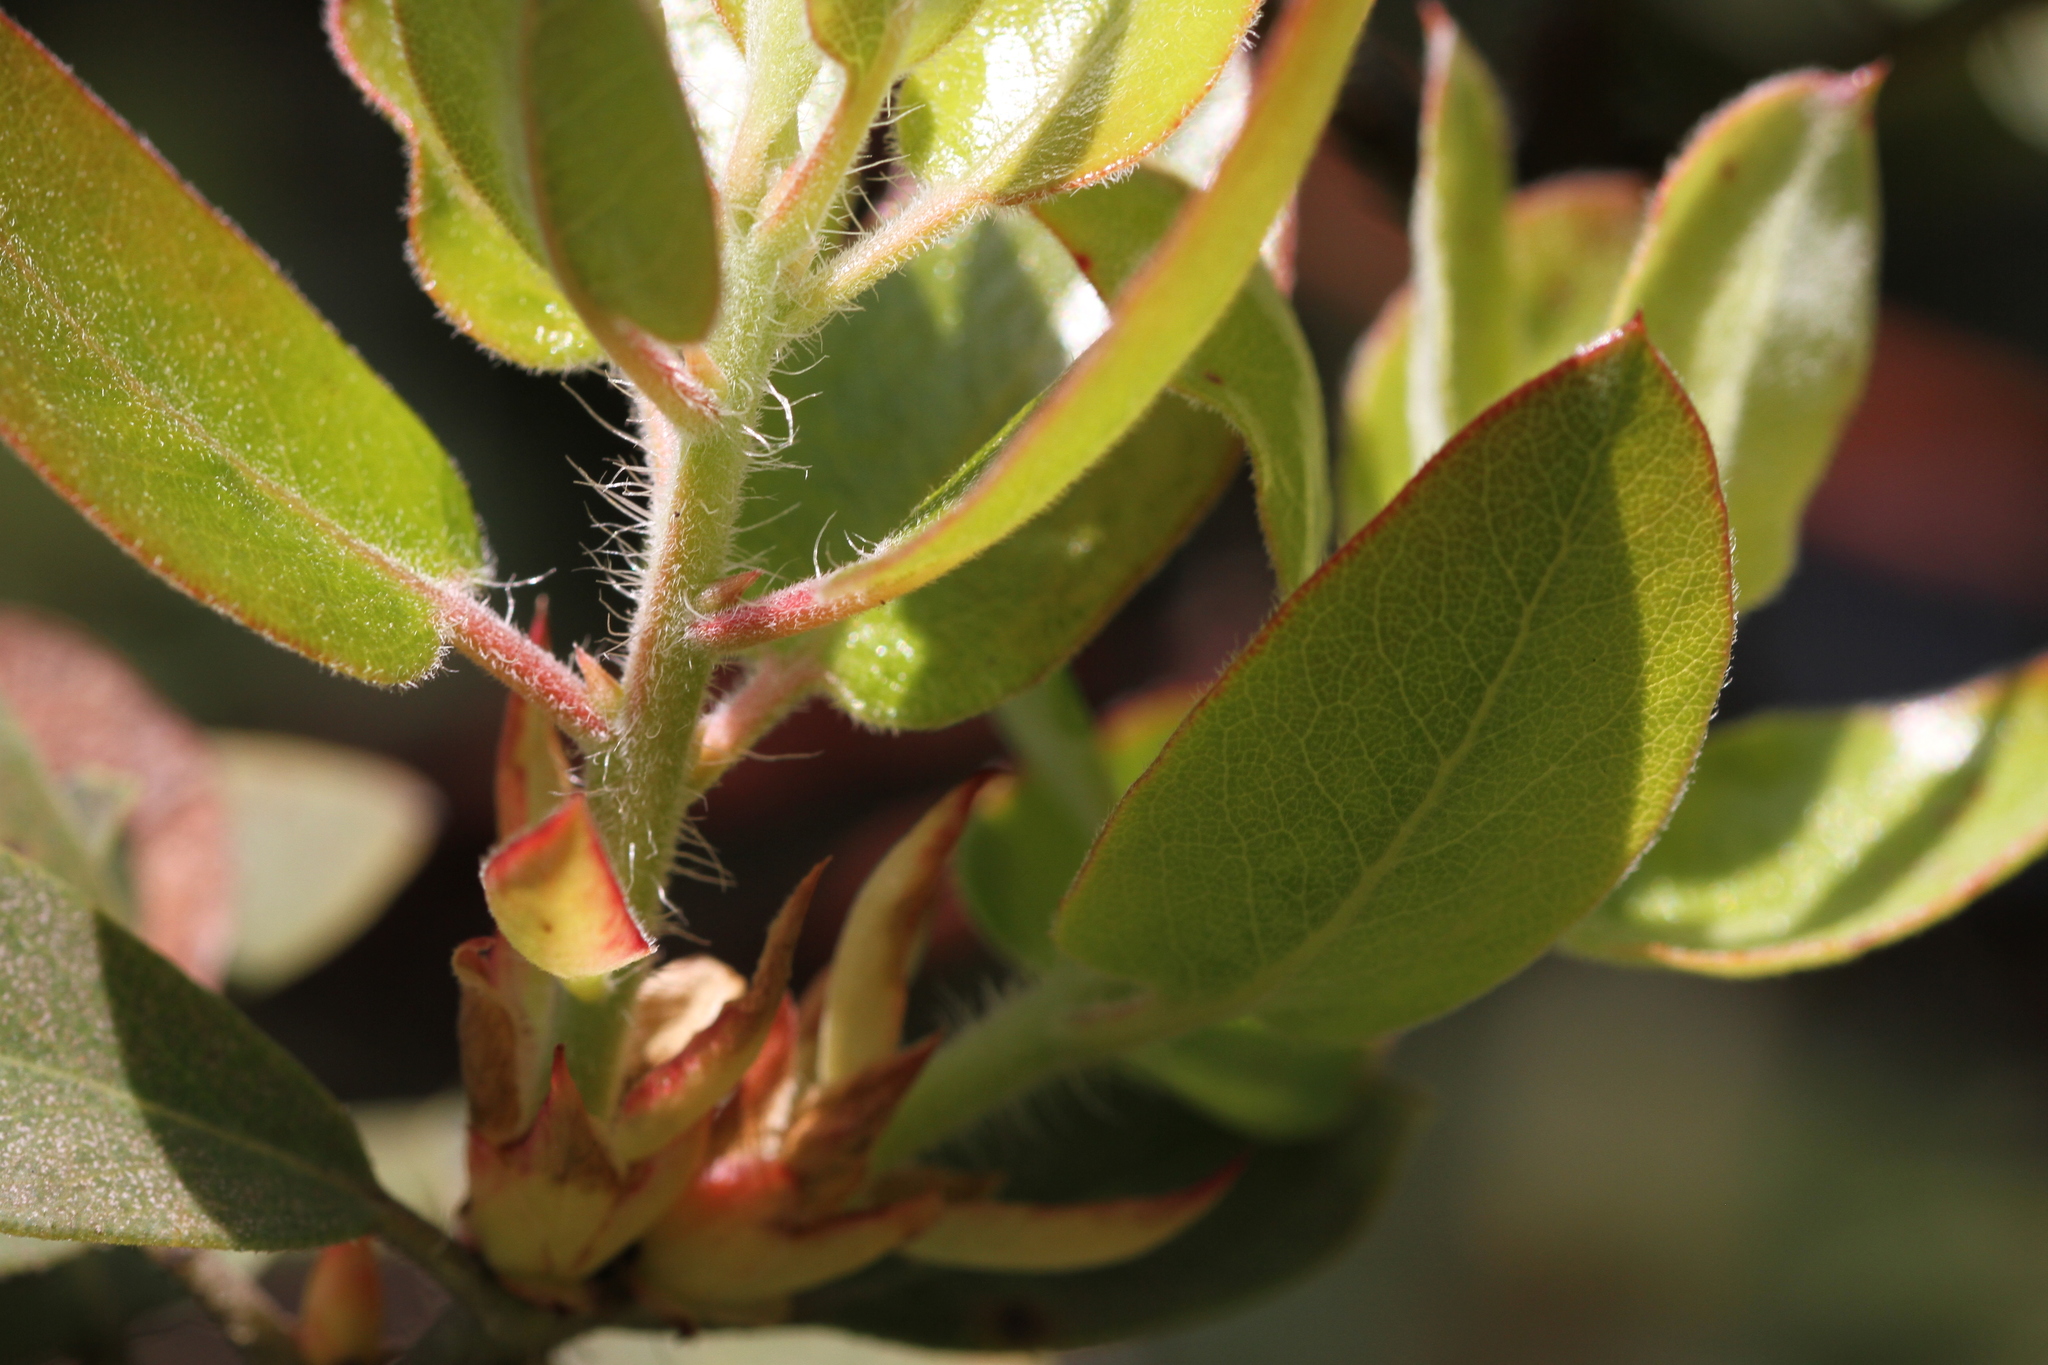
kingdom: Plantae
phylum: Tracheophyta
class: Magnoliopsida
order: Ericales
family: Ericaceae
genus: Arctostaphylos
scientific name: Arctostaphylos crustacea
